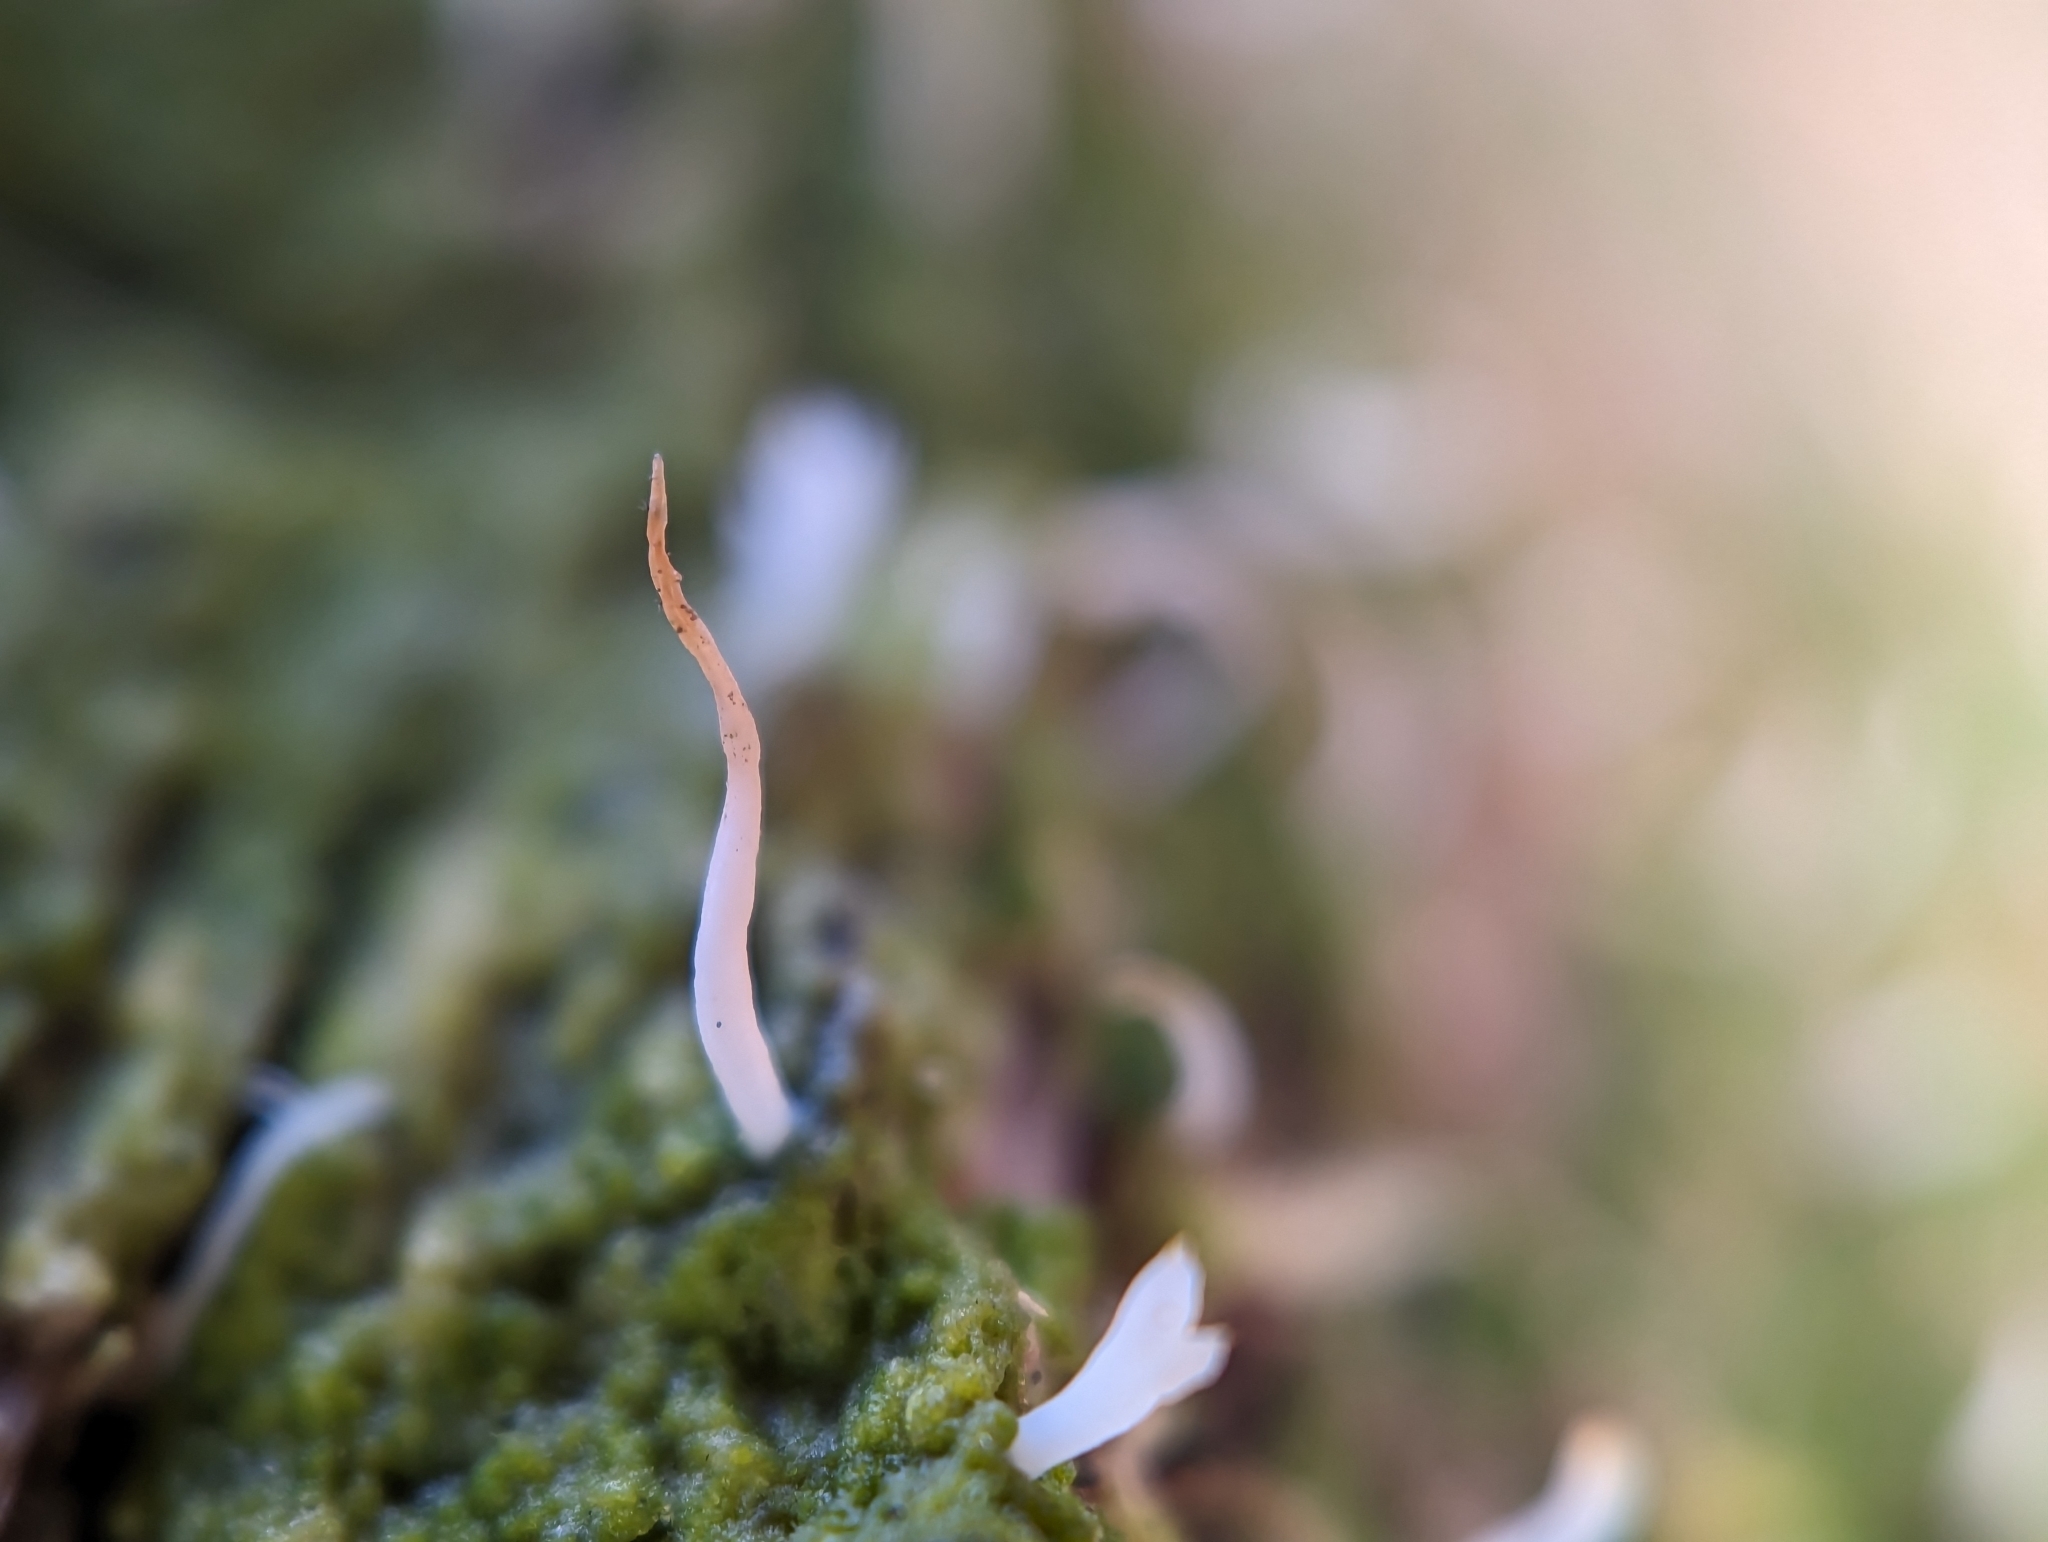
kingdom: Fungi
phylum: Basidiomycota
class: Agaricomycetes
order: Cantharellales
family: Hydnaceae
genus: Multiclavula
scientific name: Multiclavula mucida
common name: White green-algae coral
